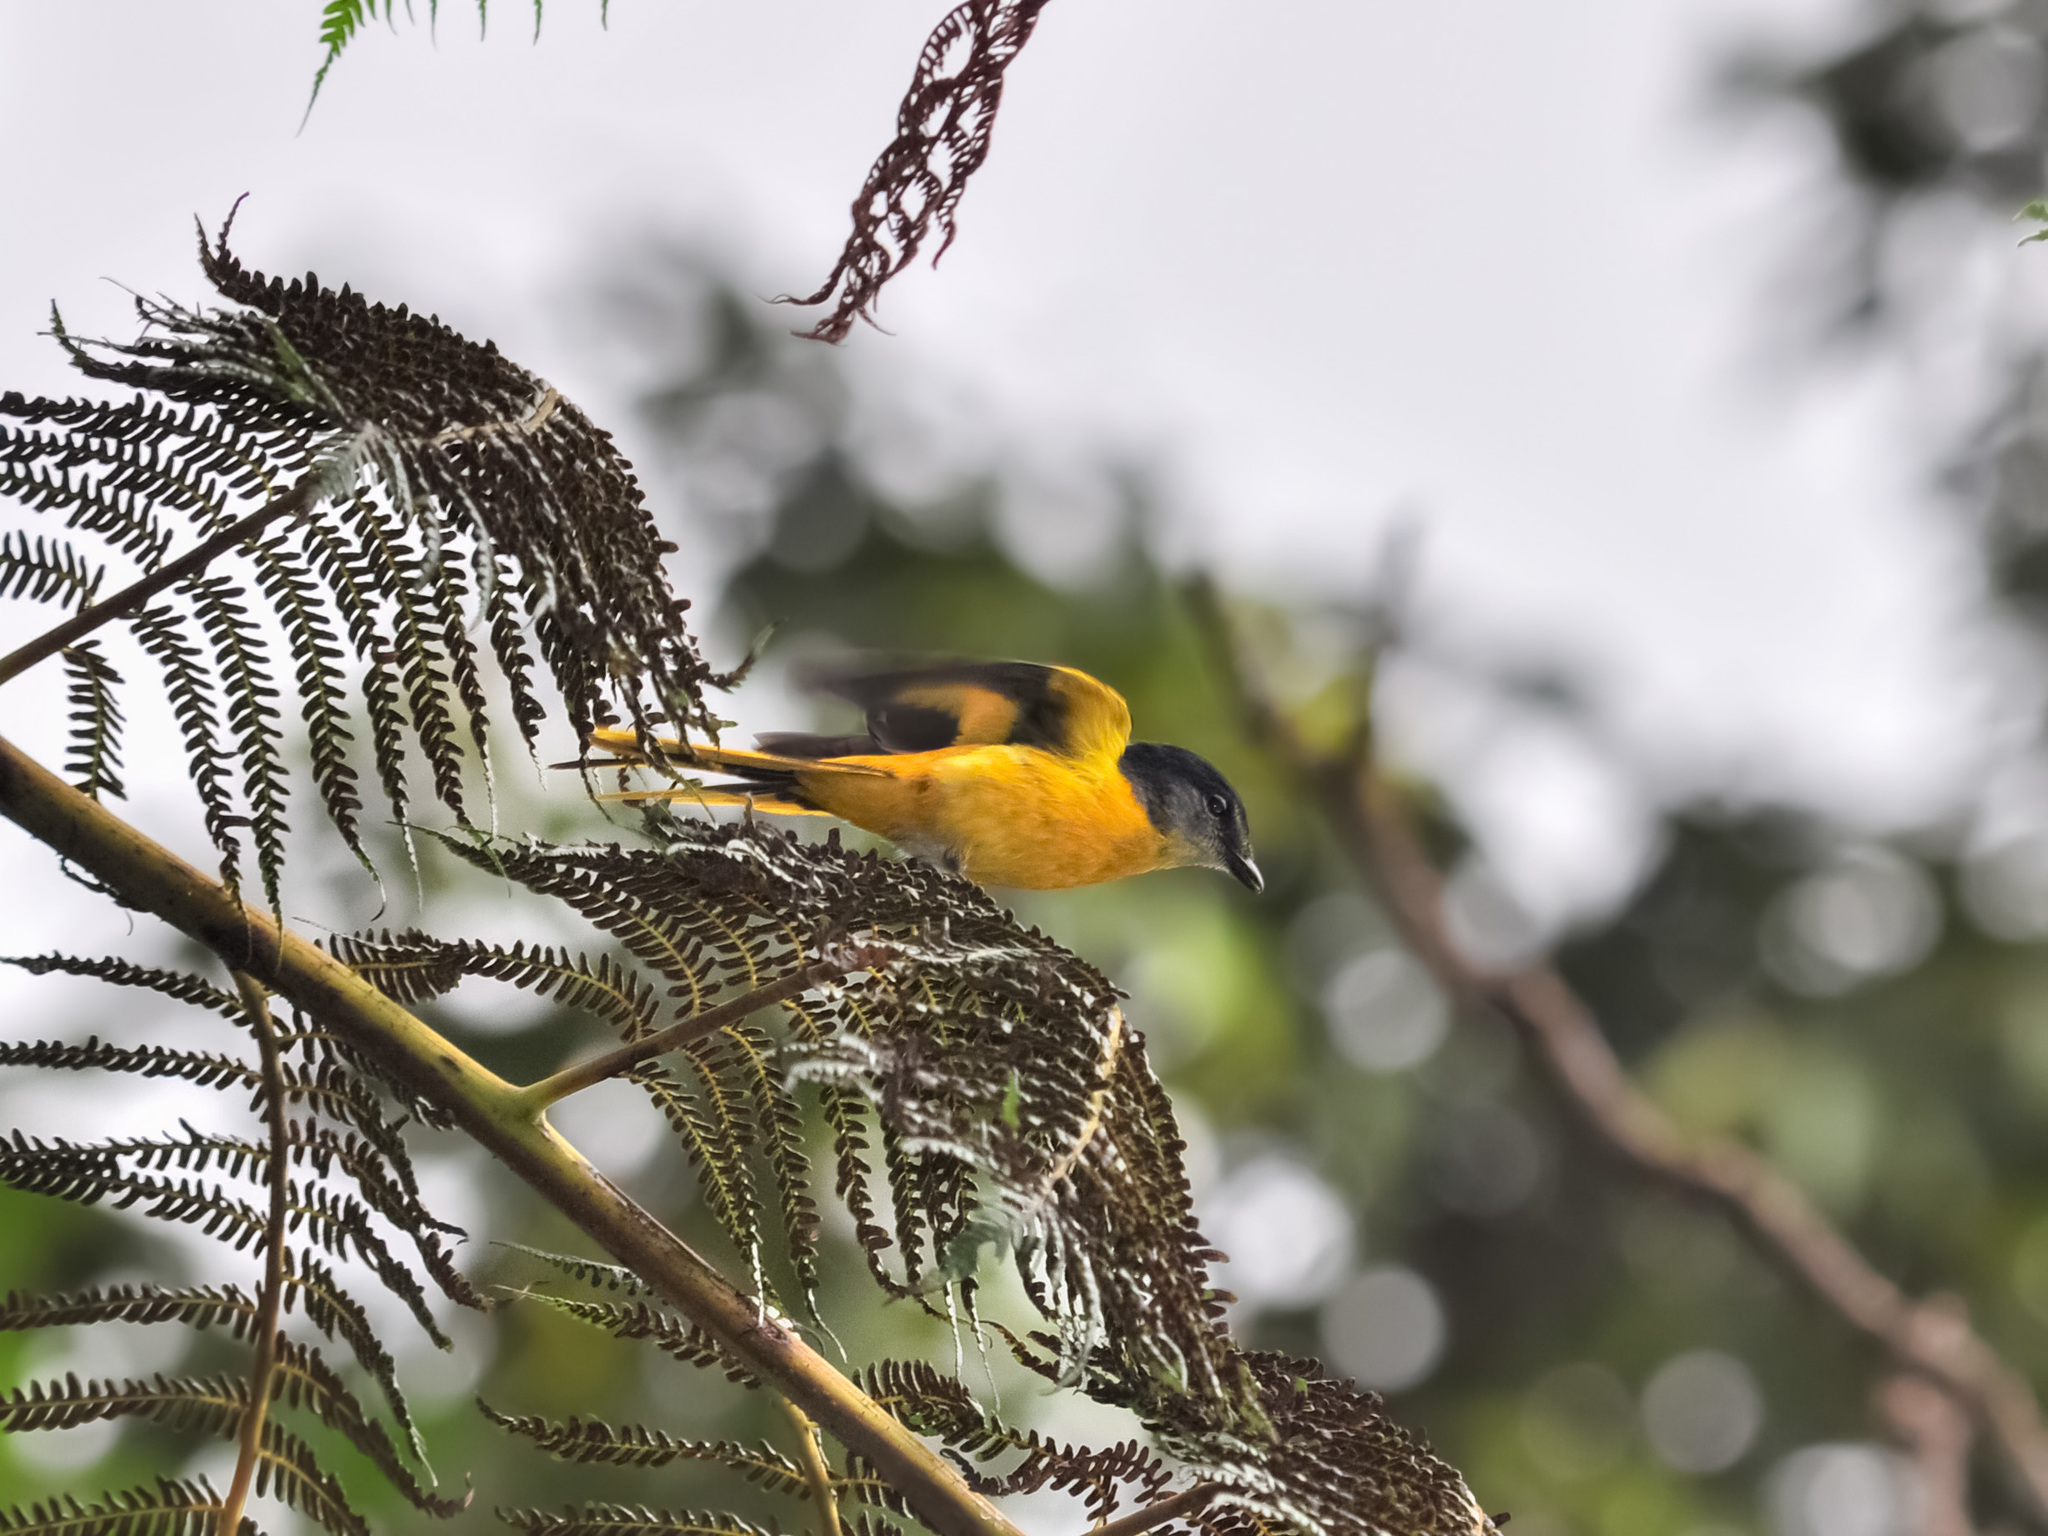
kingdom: Animalia
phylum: Chordata
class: Aves
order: Passeriformes
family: Campephagidae
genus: Pericrocotus
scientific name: Pericrocotus solaris
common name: Grey-chinned minivet
